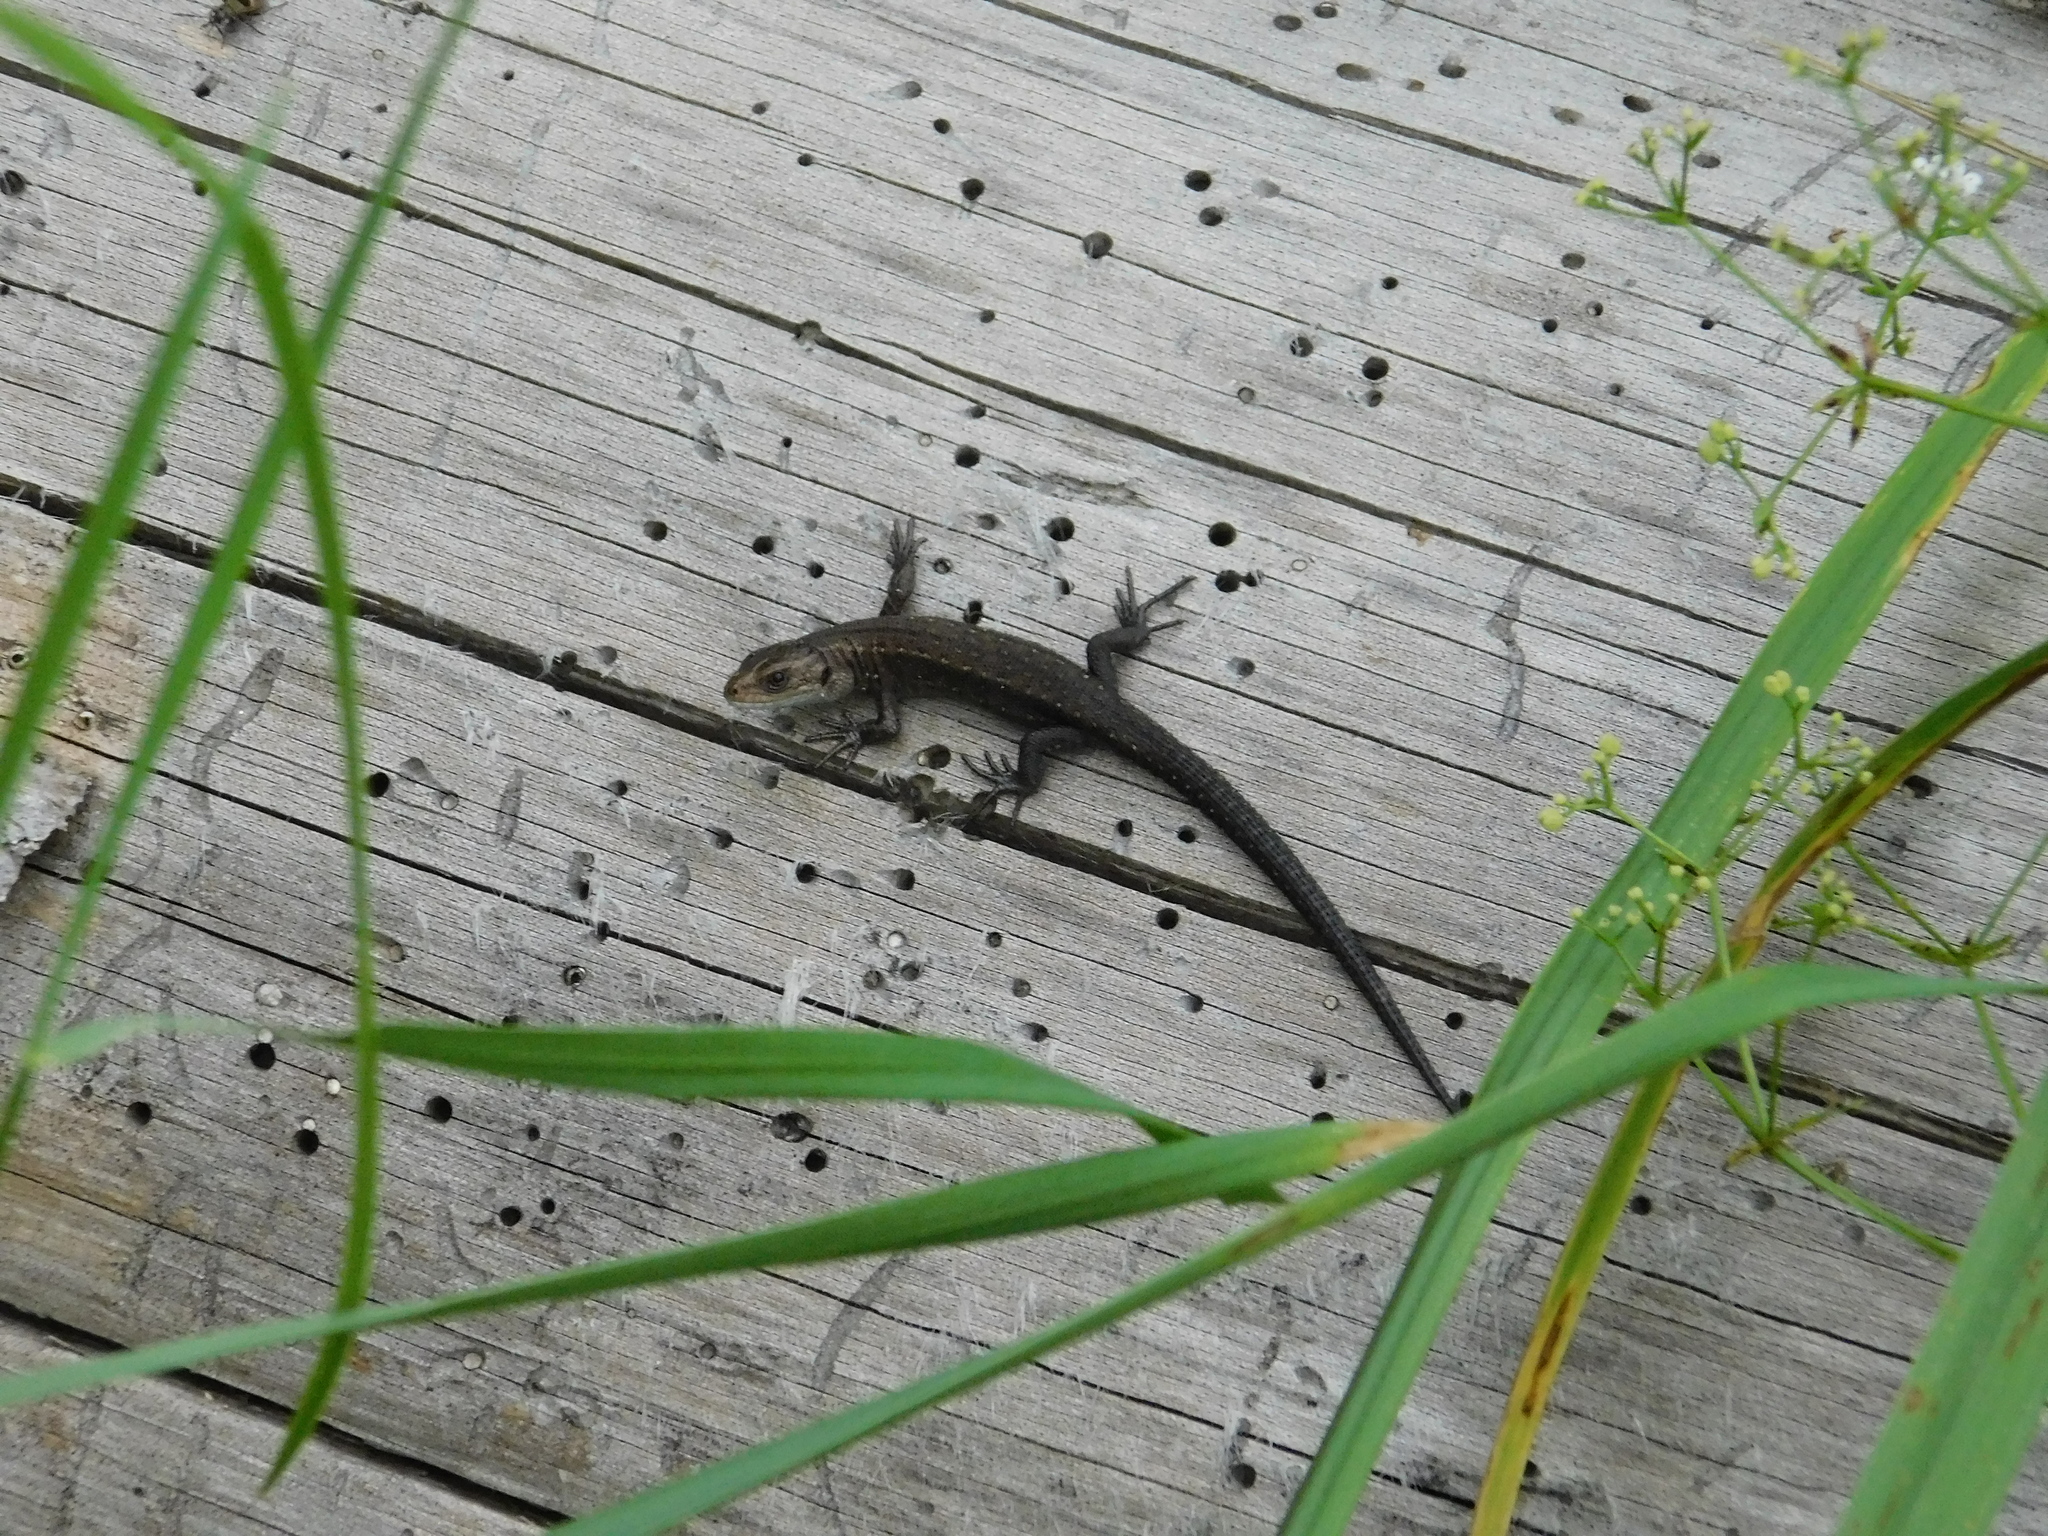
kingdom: Animalia
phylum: Chordata
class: Squamata
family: Lacertidae
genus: Zootoca
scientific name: Zootoca vivipara
